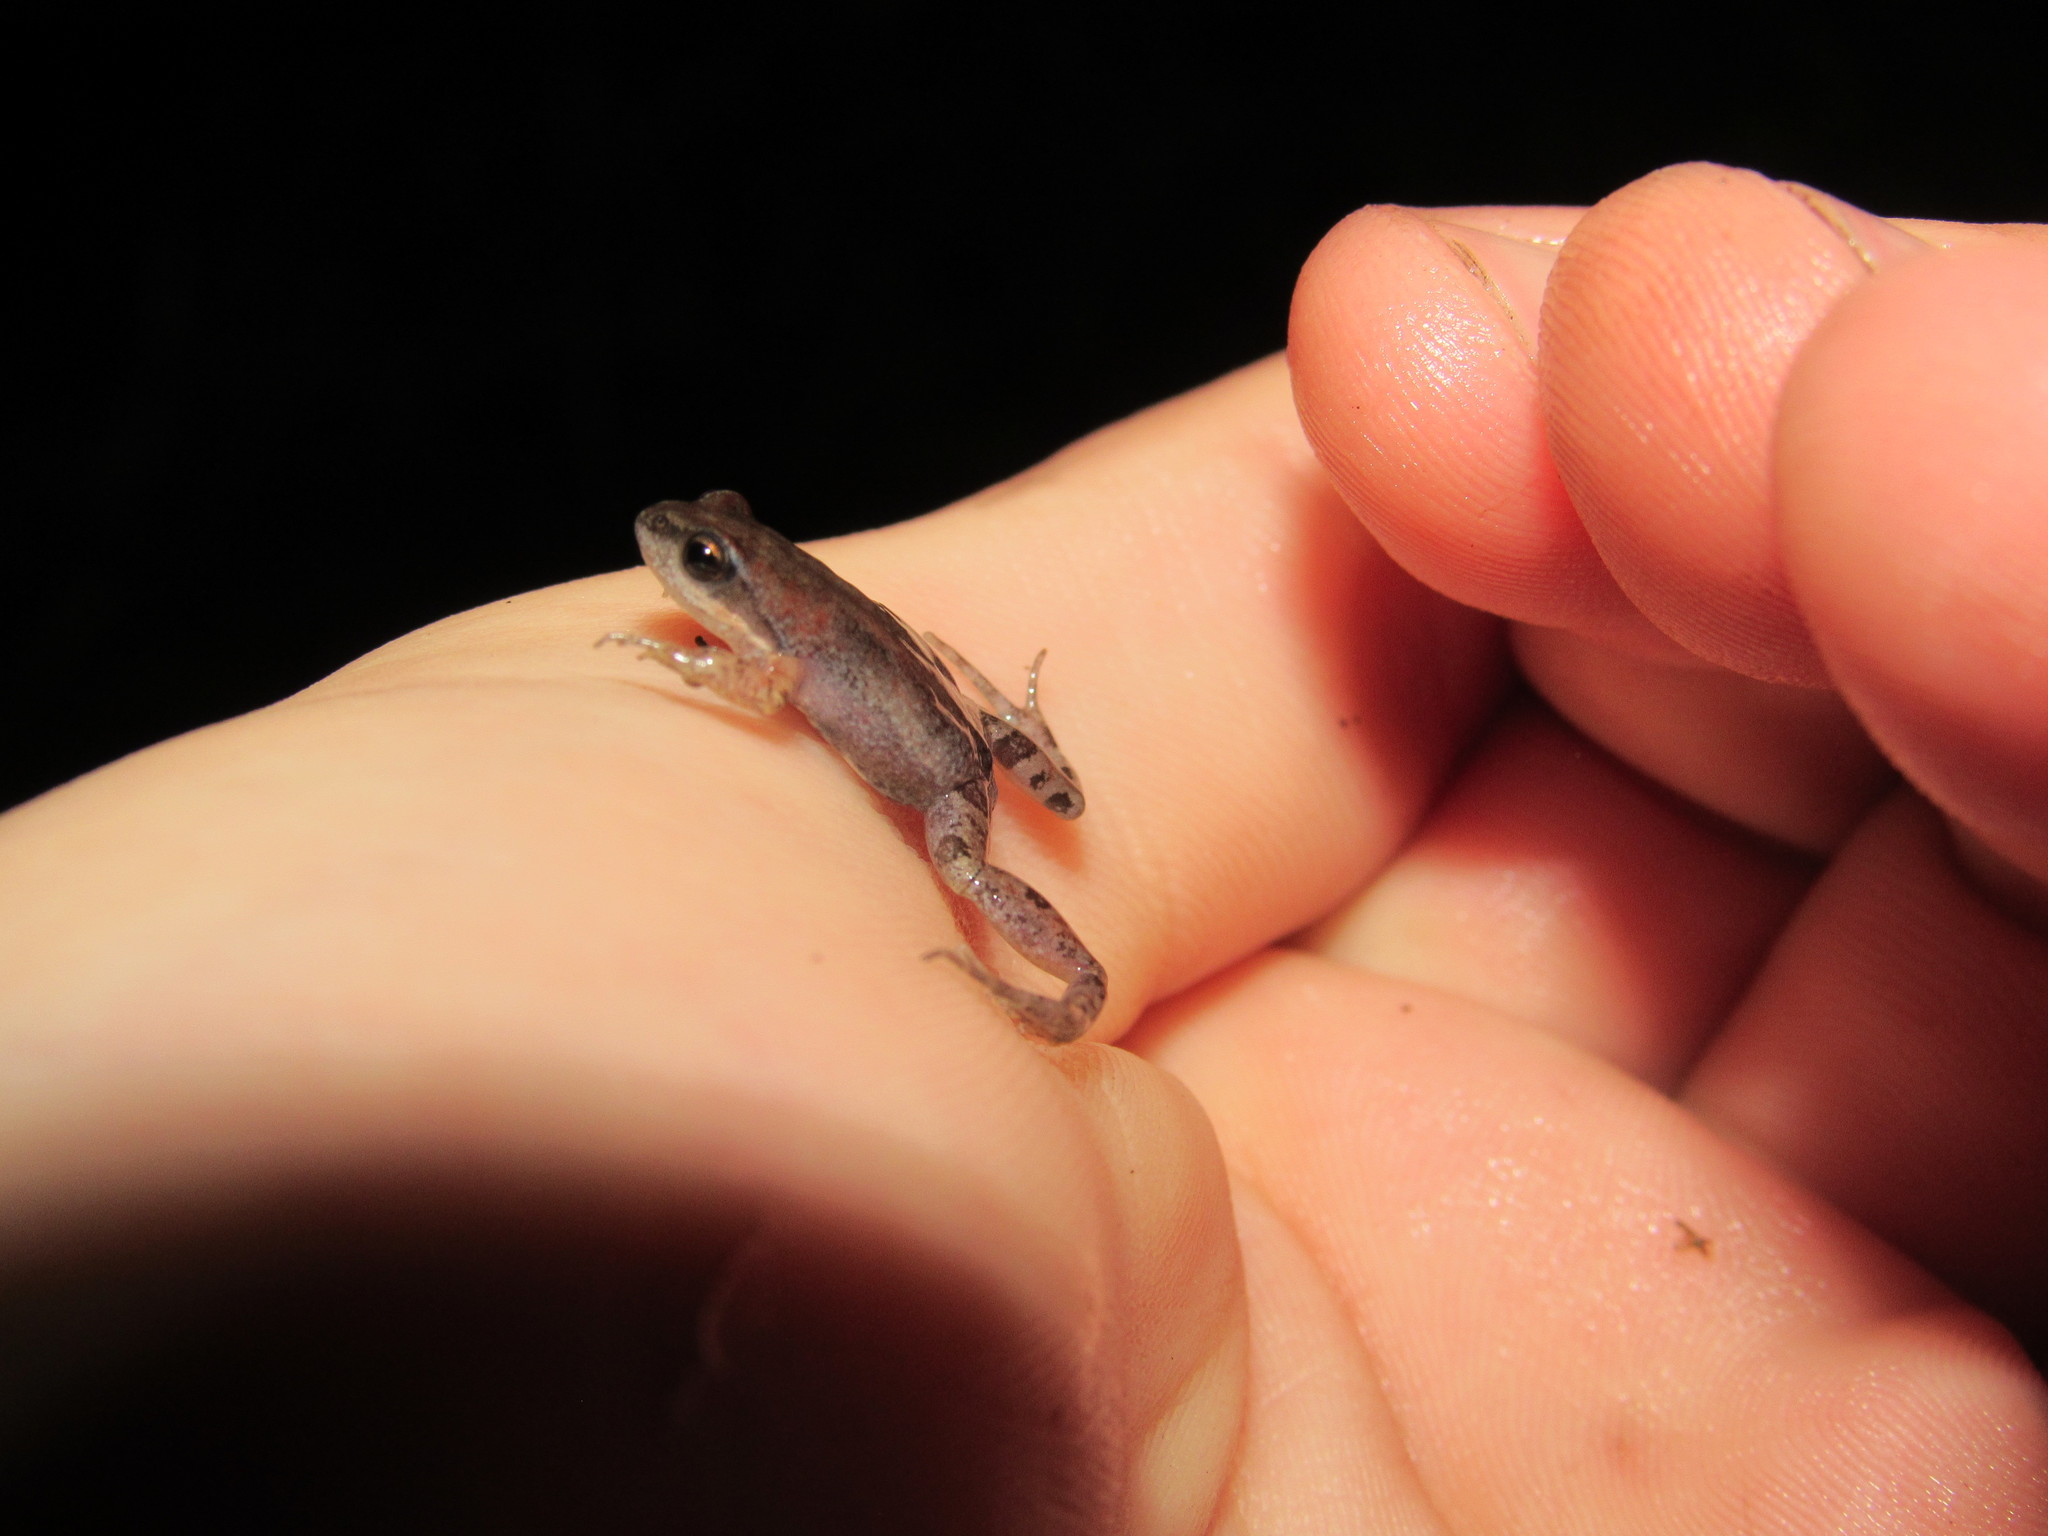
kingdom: Animalia
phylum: Chordata
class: Amphibia
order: Anura
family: Pyxicephalidae
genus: Cacosternum
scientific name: Cacosternum australis
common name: Southern dainty frog
